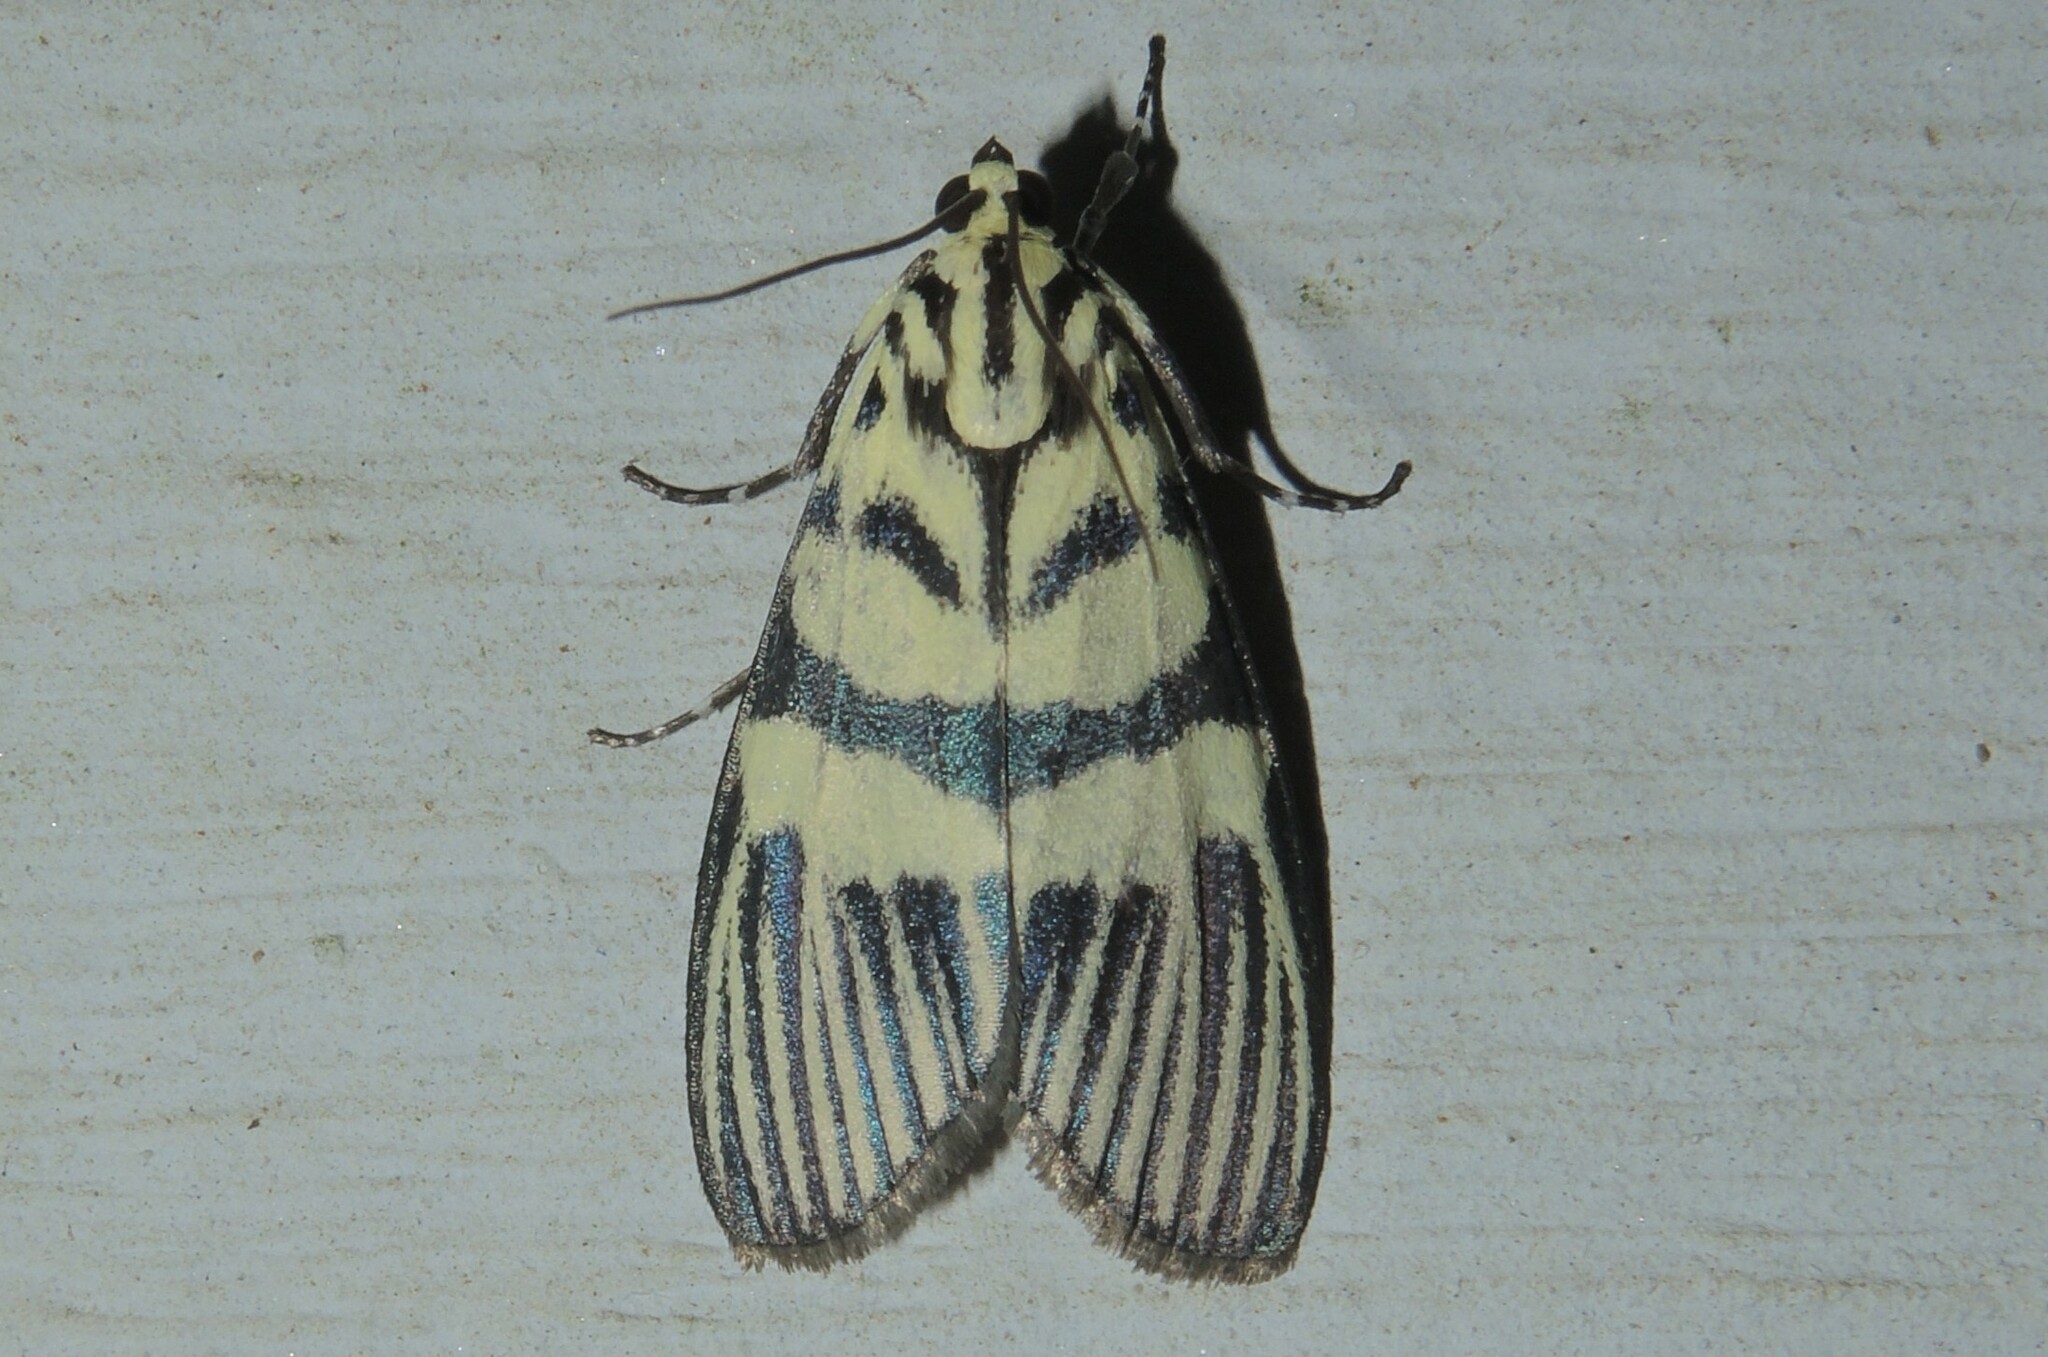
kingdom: Animalia
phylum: Arthropoda
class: Insecta
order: Lepidoptera
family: Crambidae
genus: Heortia
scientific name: Heortia vitessoides
